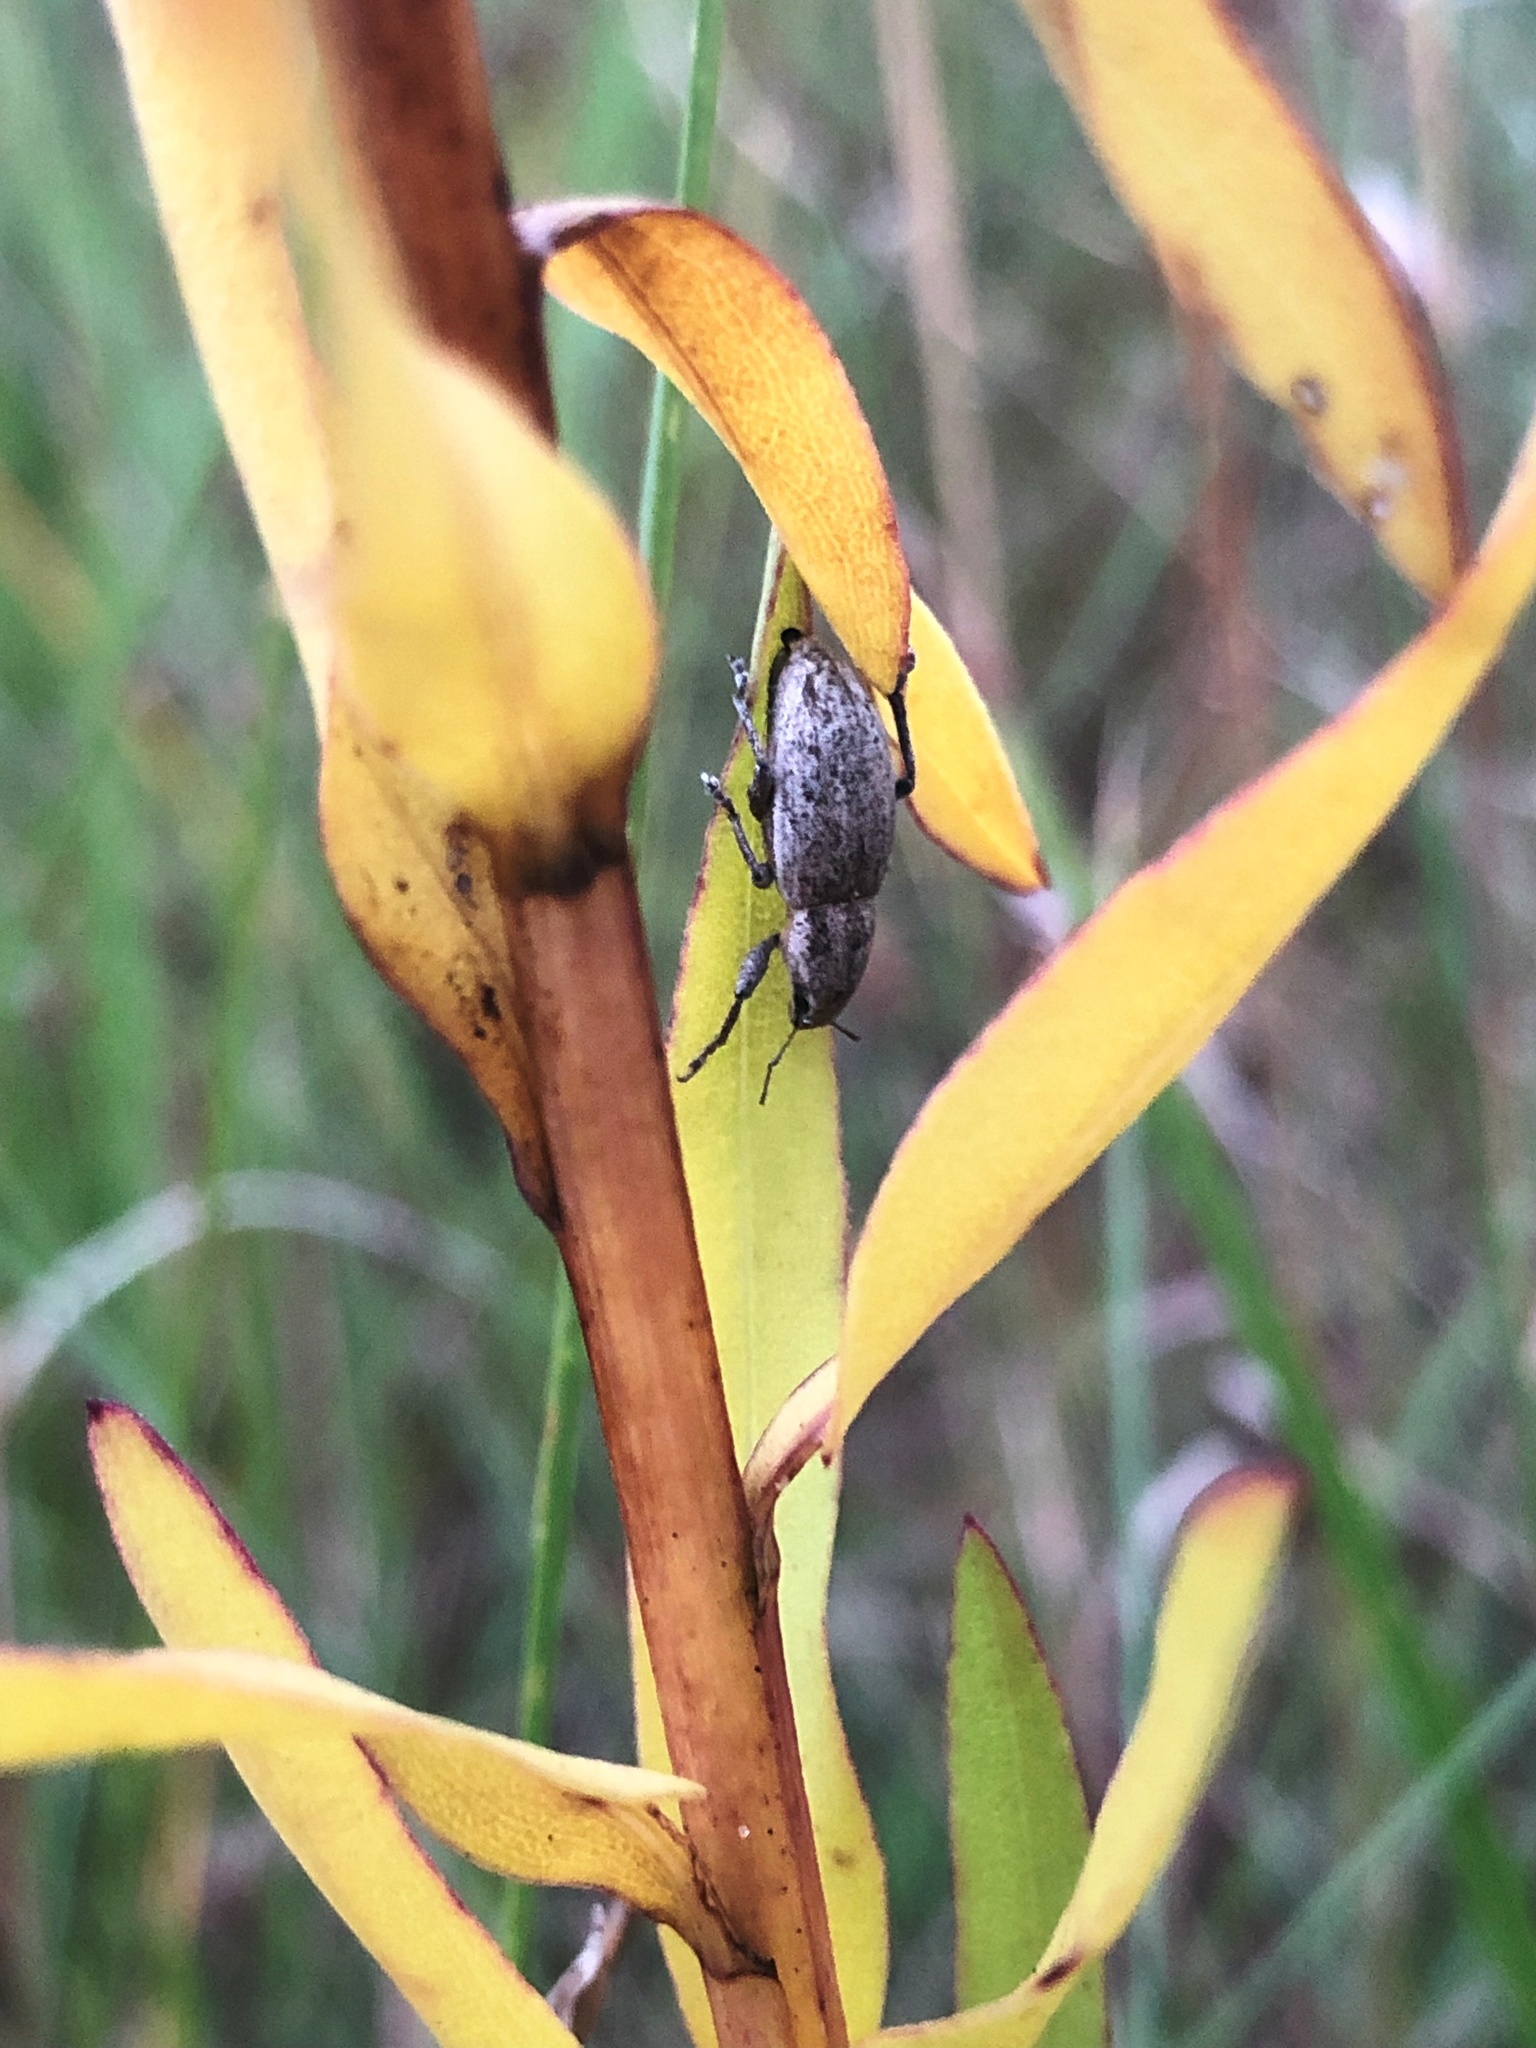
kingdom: Animalia
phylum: Arthropoda
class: Insecta
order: Coleoptera
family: Curculionidae
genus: Tanymecus
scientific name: Tanymecus lacaena
